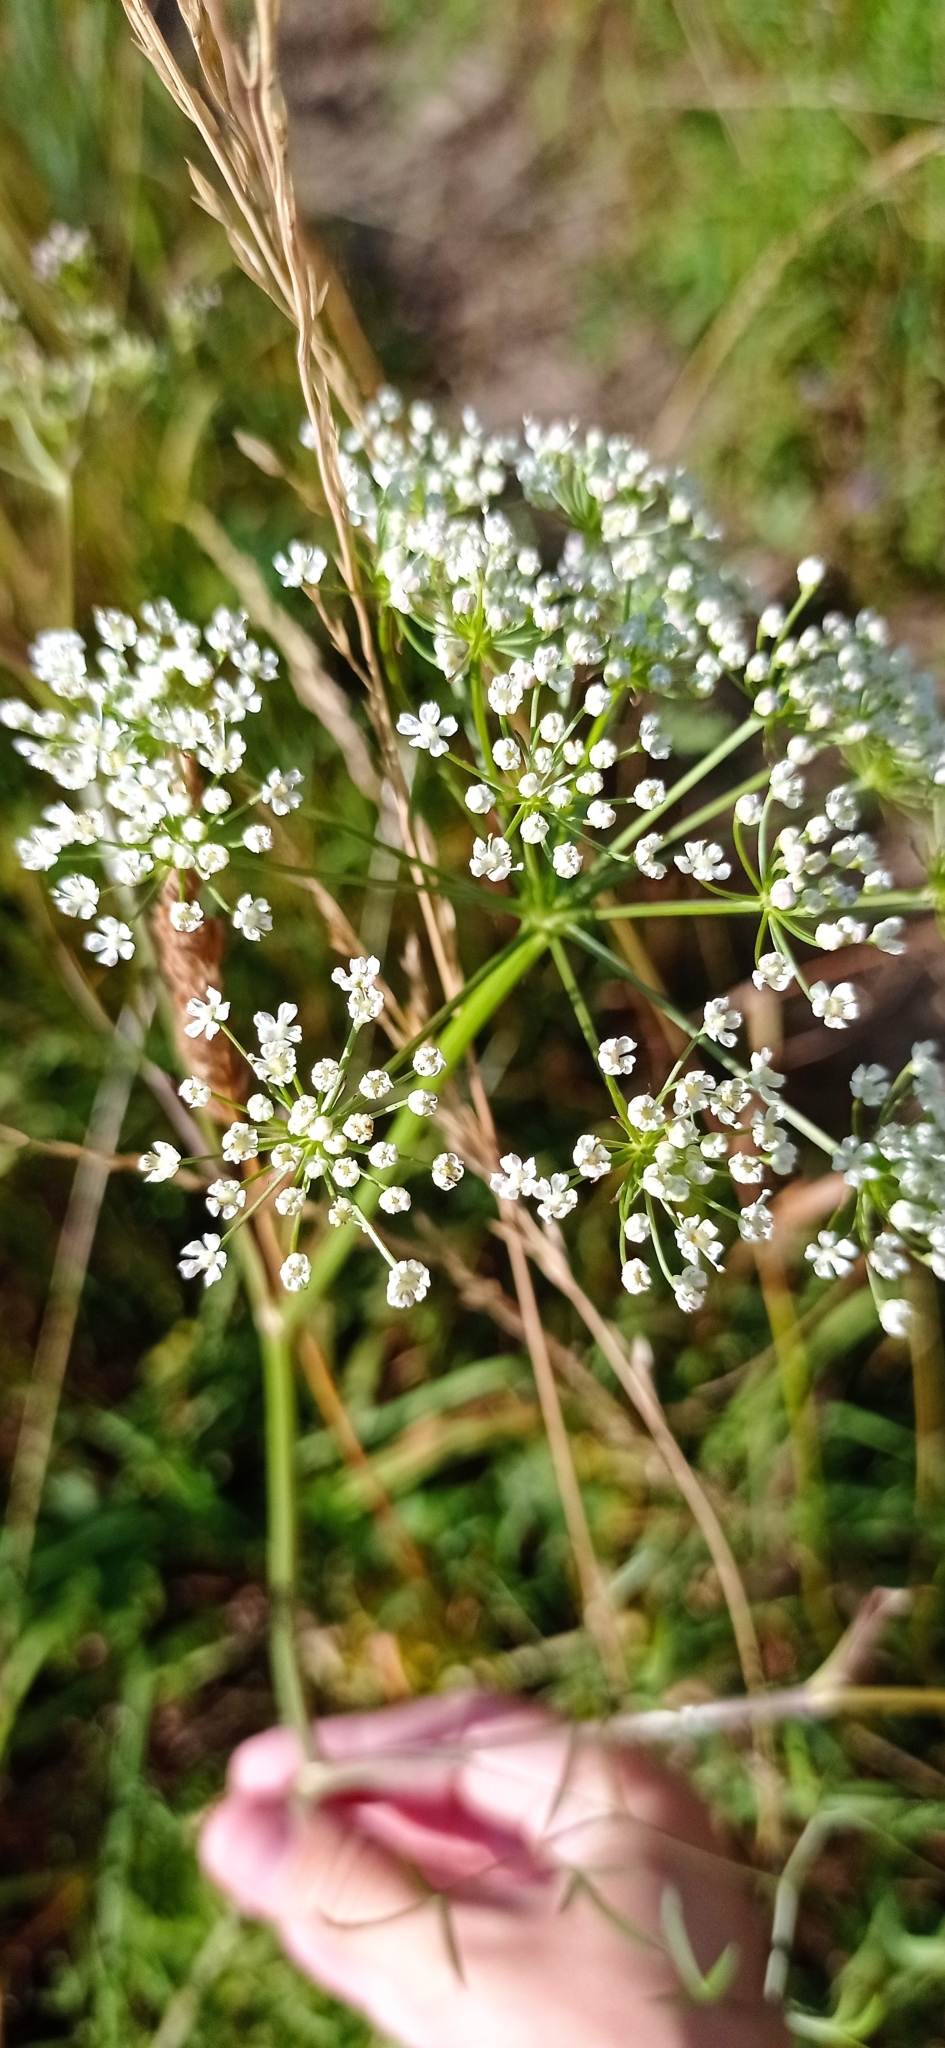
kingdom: Plantae
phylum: Tracheophyta
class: Magnoliopsida
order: Apiales
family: Apiaceae
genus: Cenolophium
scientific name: Cenolophium fischeri
